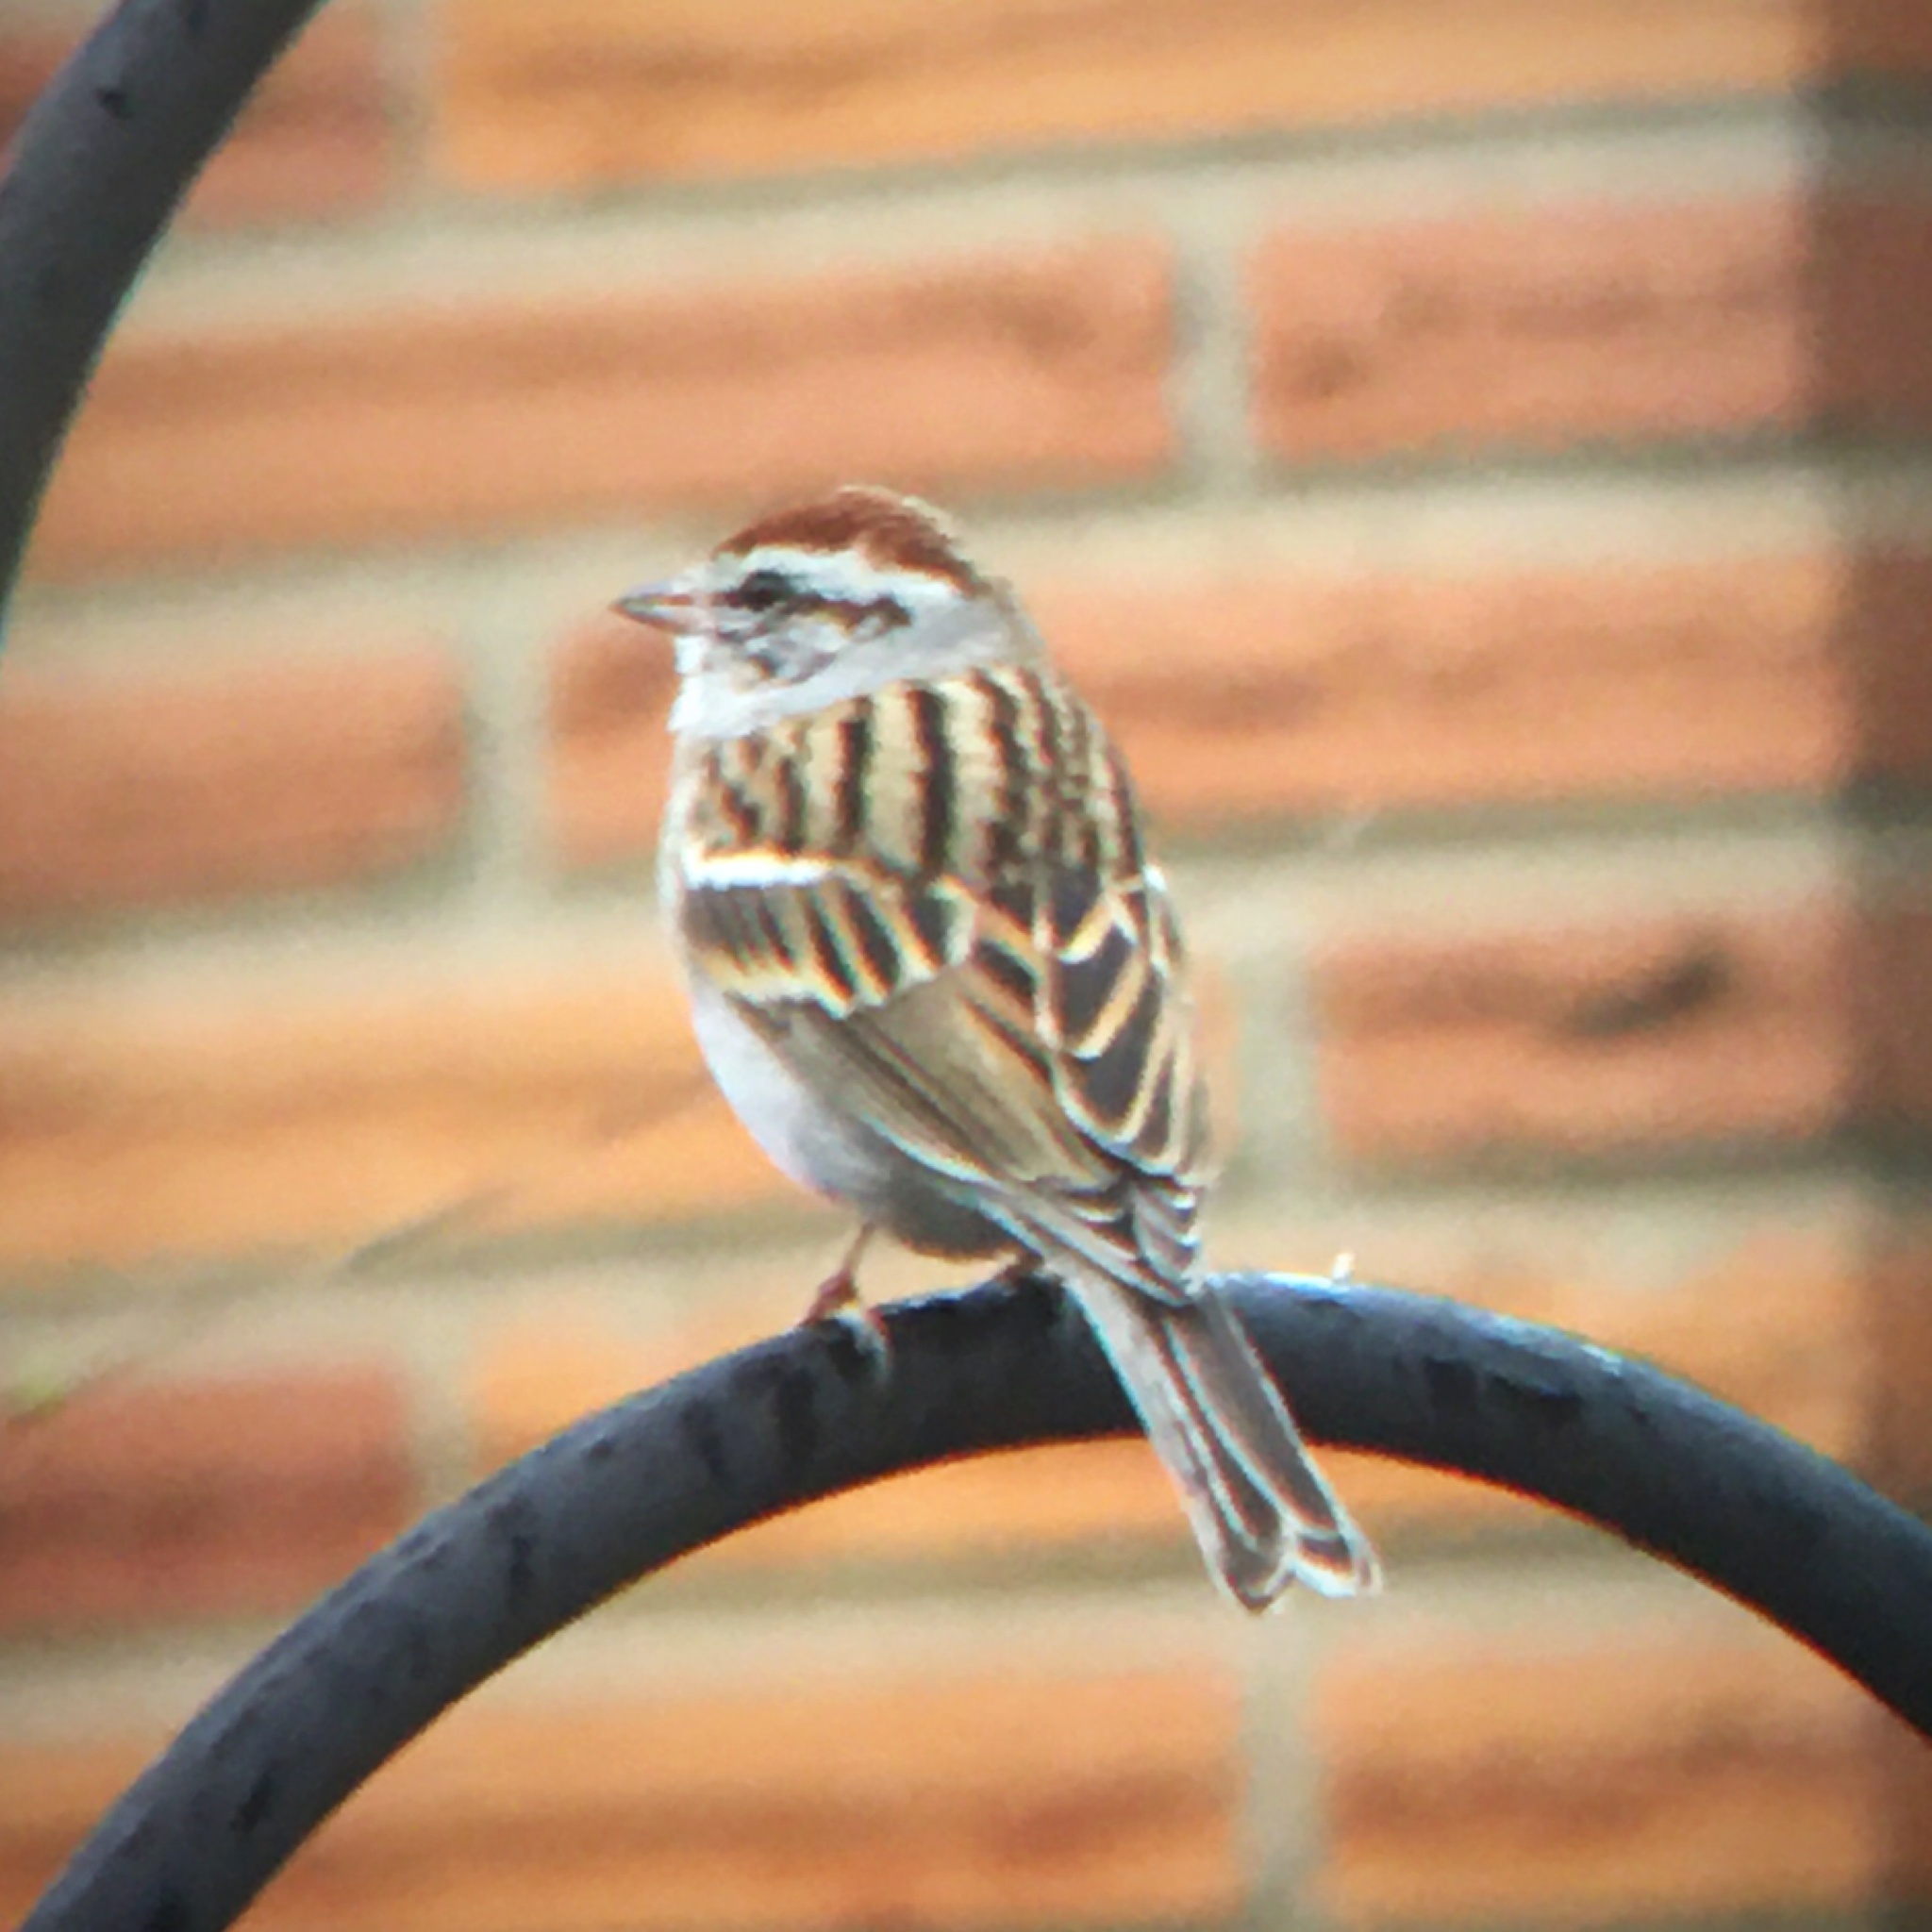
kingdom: Animalia
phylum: Chordata
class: Aves
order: Passeriformes
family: Passerellidae
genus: Spizella
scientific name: Spizella passerina
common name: Chipping sparrow
